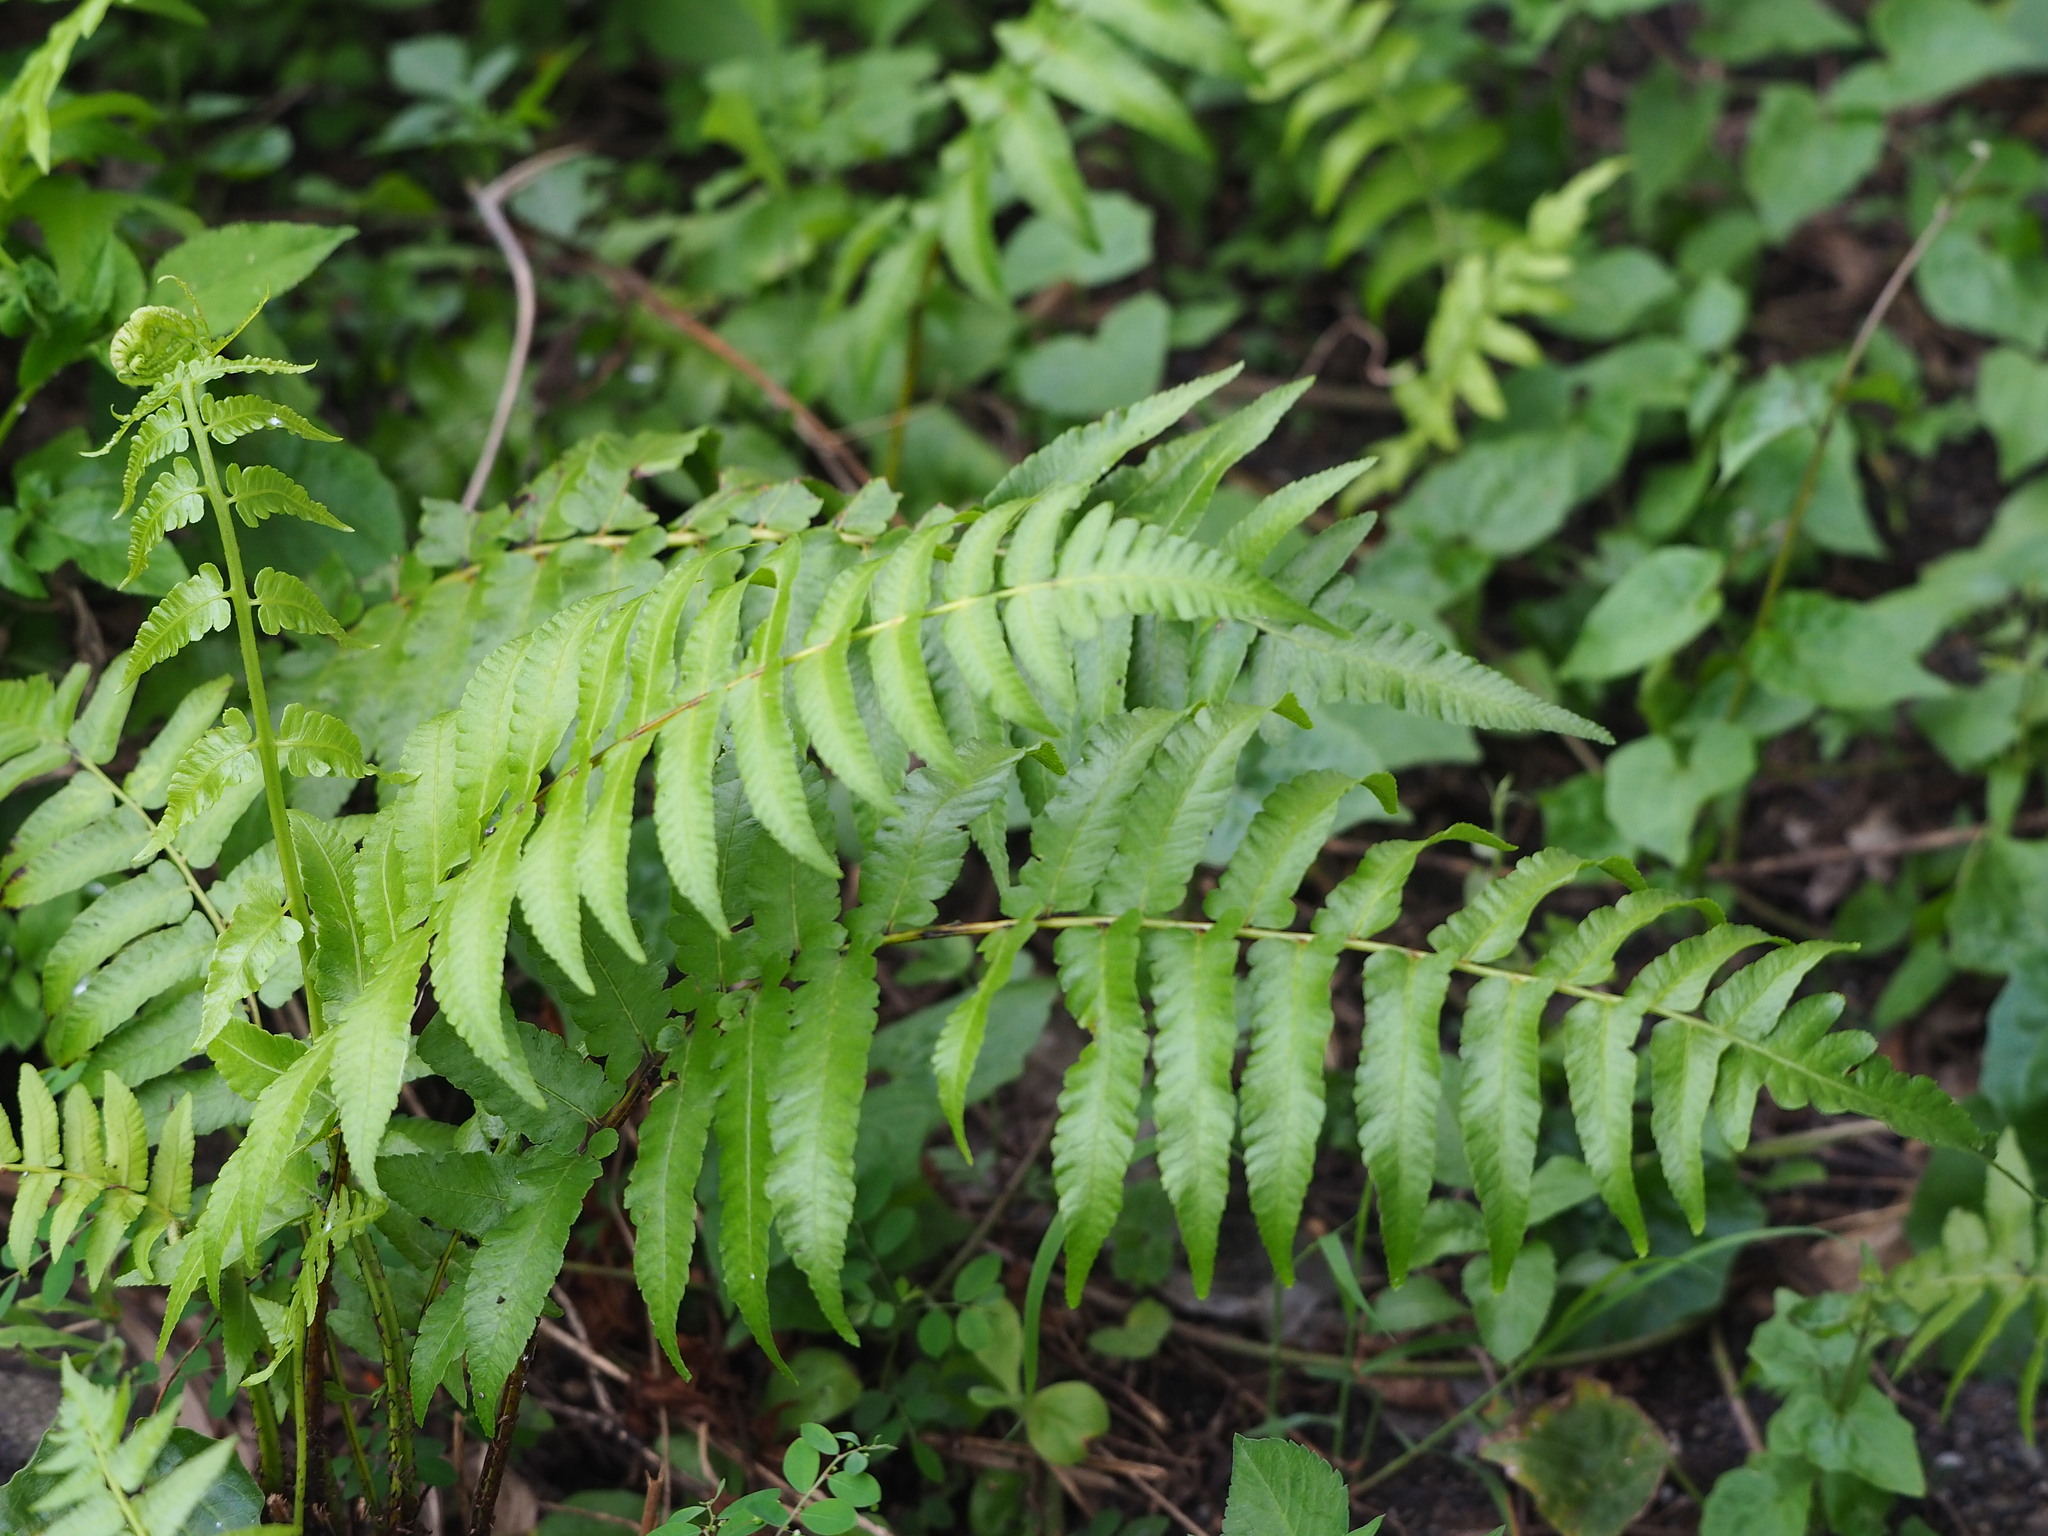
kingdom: Plantae
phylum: Tracheophyta
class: Polypodiopsida
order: Polypodiales
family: Athyriaceae
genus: Diplazium
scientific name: Diplazium esculentum
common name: Vegetable fern
